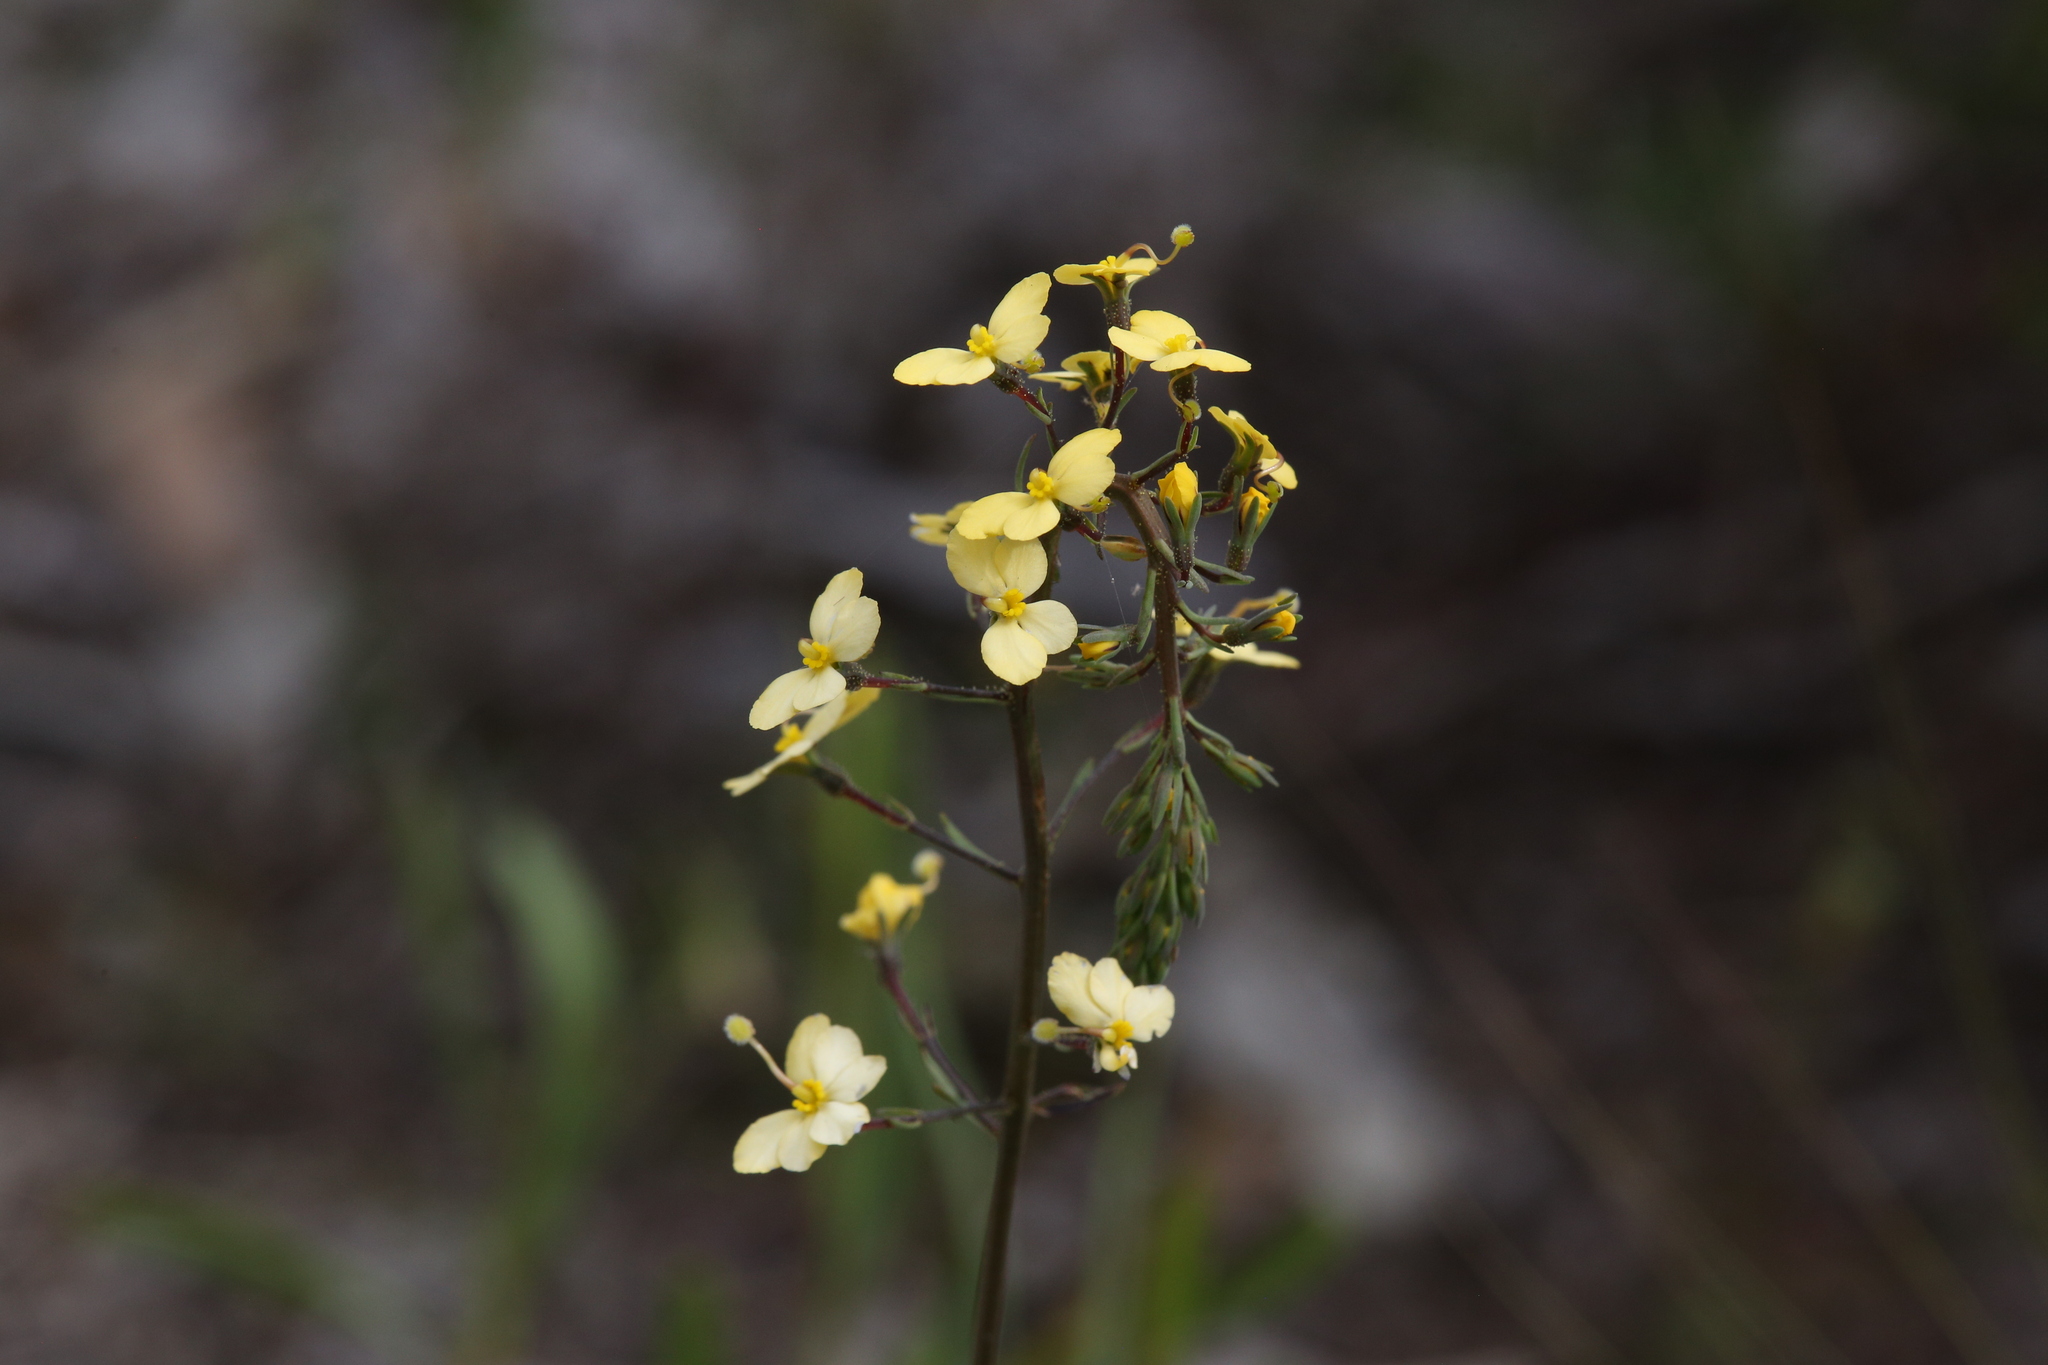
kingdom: Plantae
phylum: Tracheophyta
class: Magnoliopsida
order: Asterales
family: Stylidiaceae
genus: Stylidium
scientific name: Stylidium diuroides
